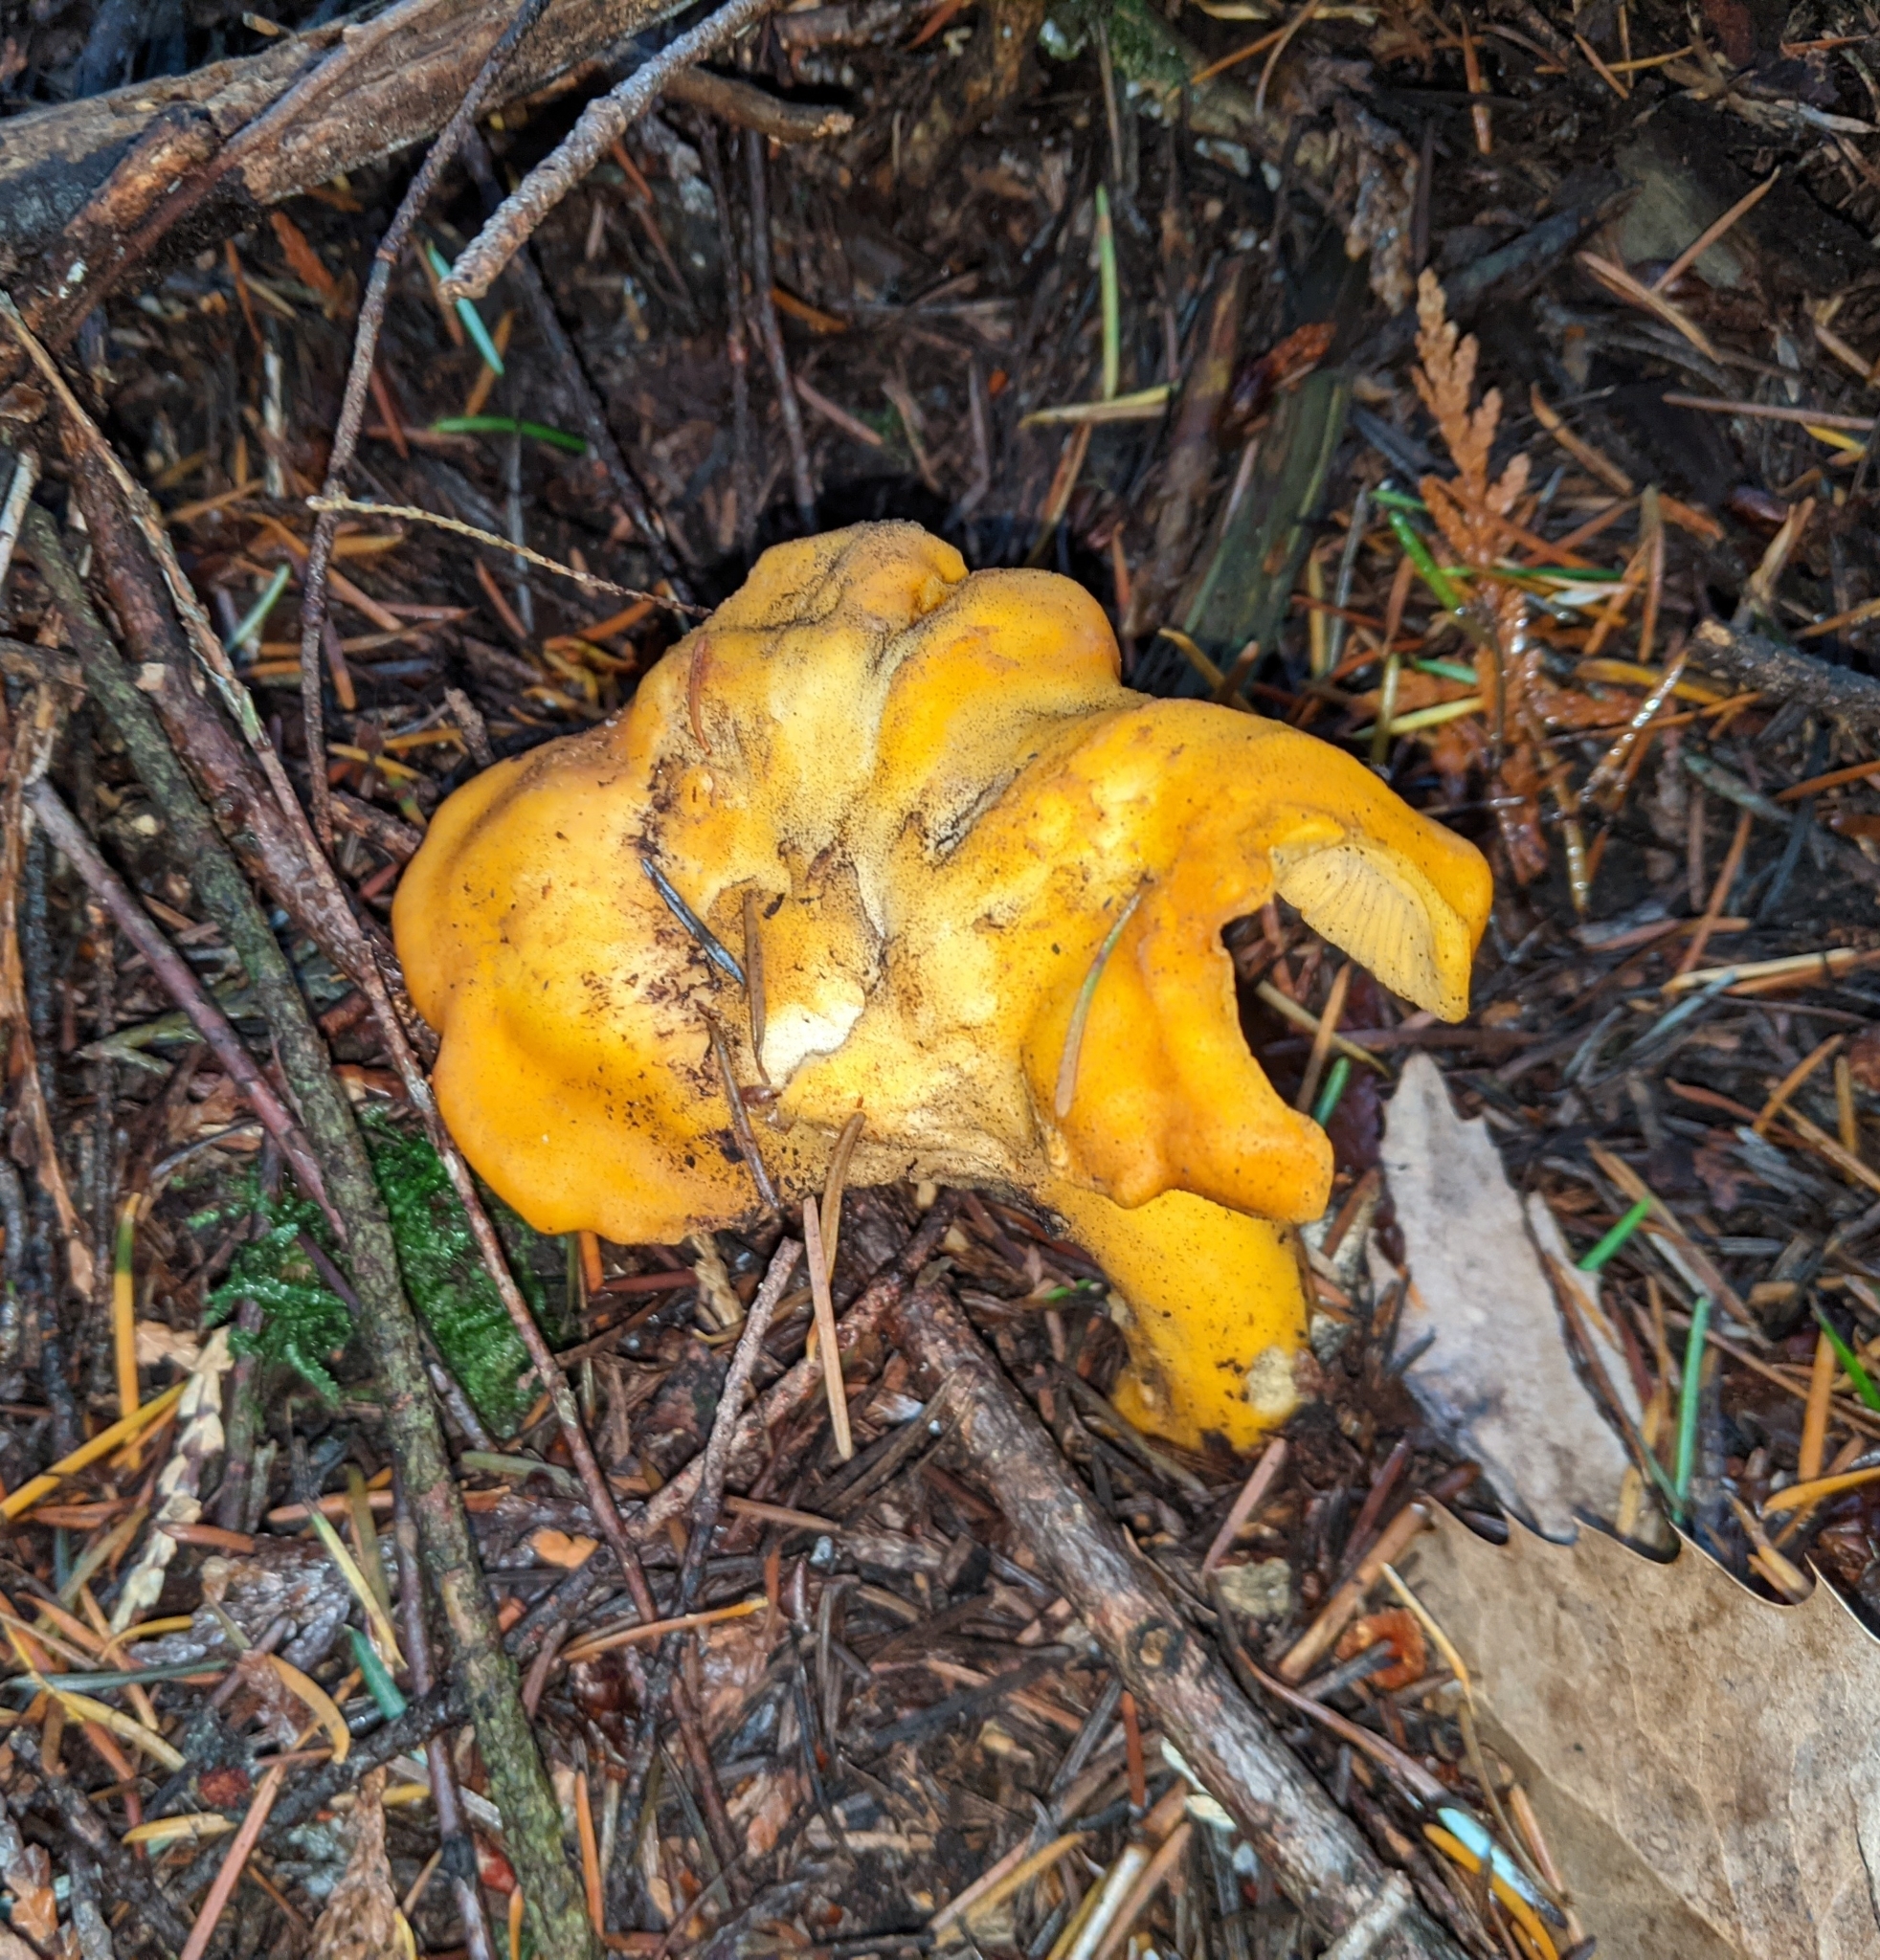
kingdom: Fungi
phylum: Basidiomycota
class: Agaricomycetes
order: Cantharellales
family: Hydnaceae
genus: Cantharellus
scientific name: Cantharellus formosus
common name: Pacific golden chanterelle
